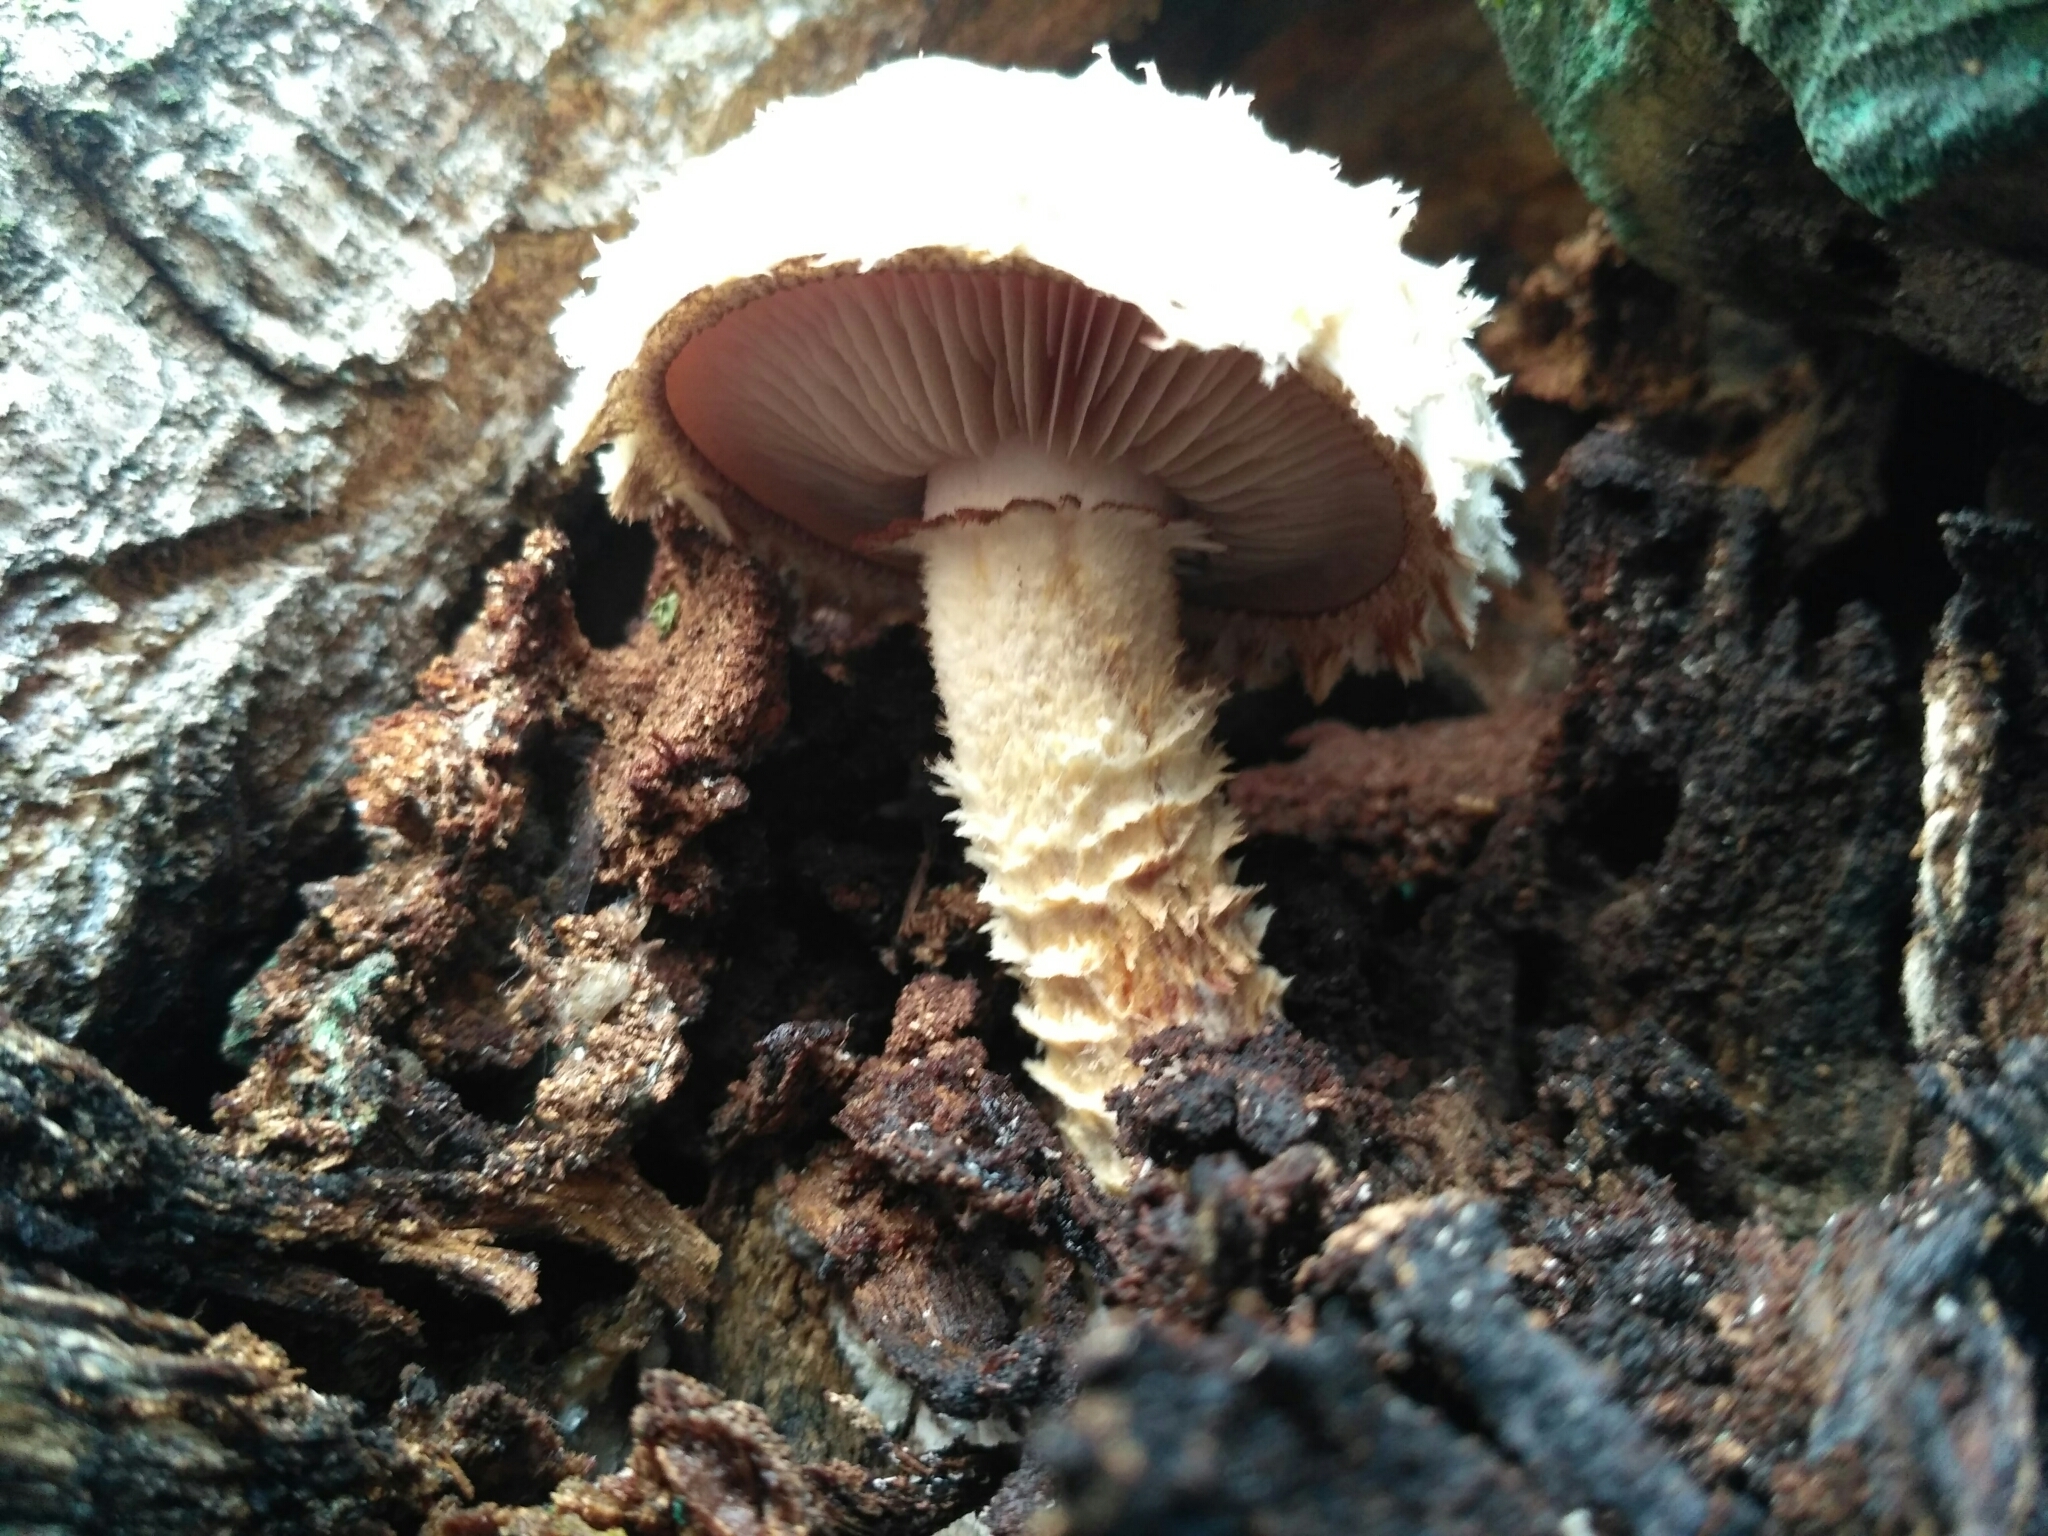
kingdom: Fungi
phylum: Basidiomycota
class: Agaricomycetes
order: Agaricales
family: Strophariaceae
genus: Pholiota
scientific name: Pholiota populnea
